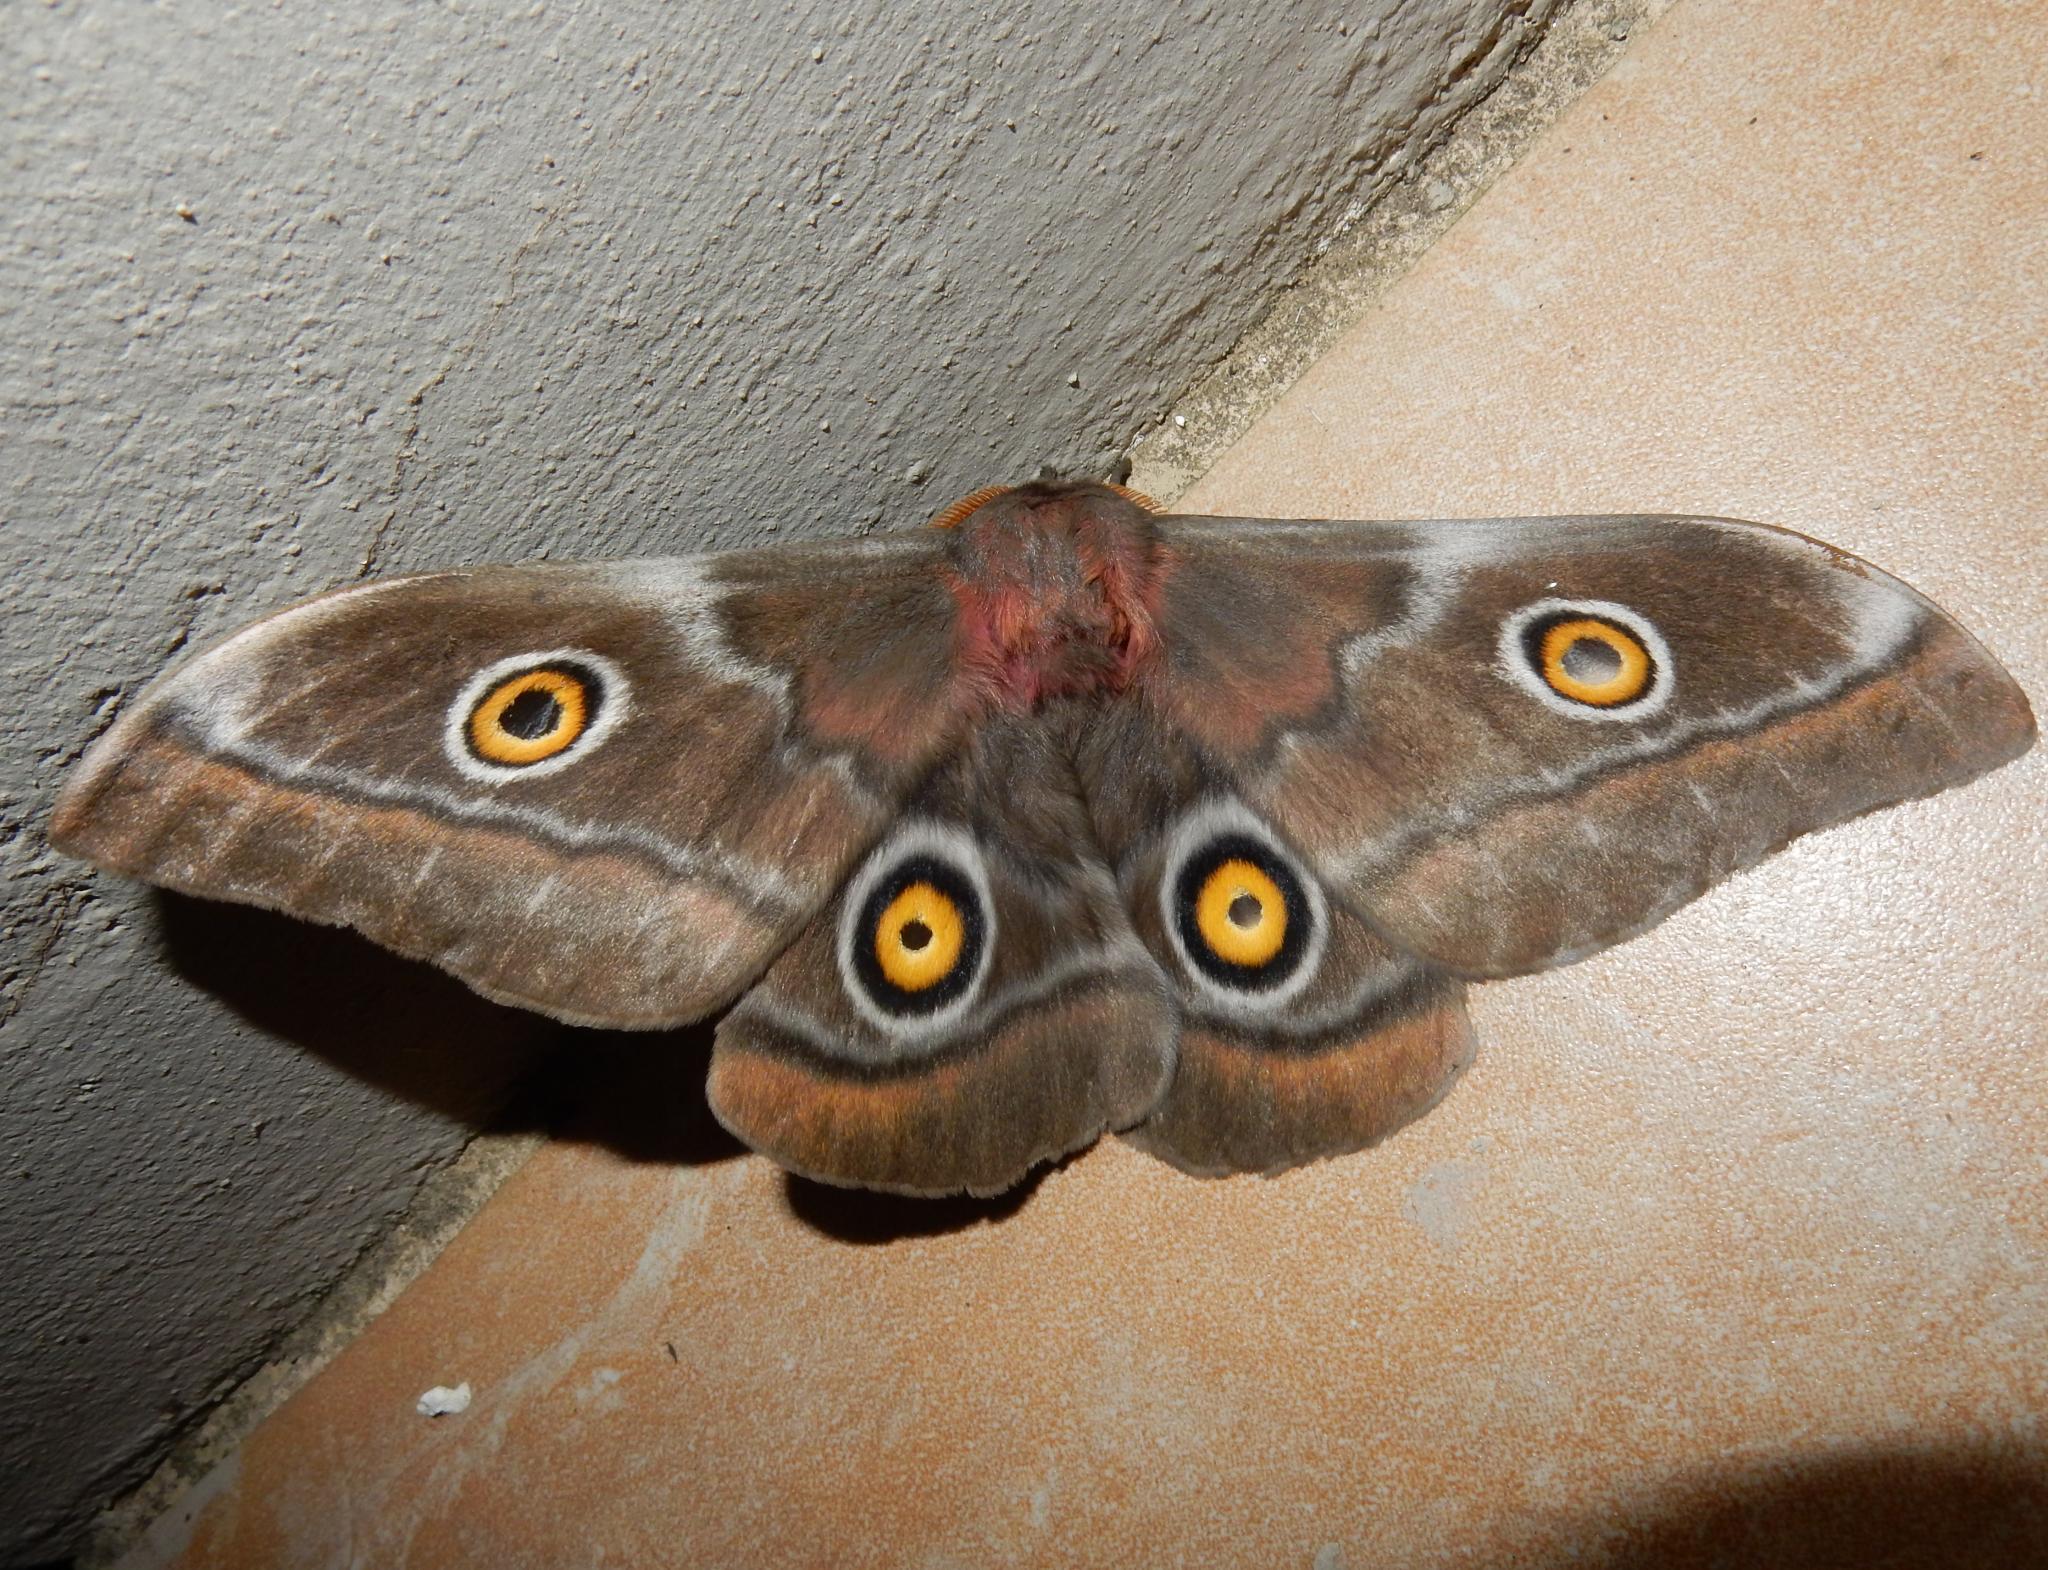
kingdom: Animalia
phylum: Arthropoda
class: Insecta
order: Lepidoptera
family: Saturniidae
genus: Nudaurelia
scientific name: Nudaurelia cytherea
